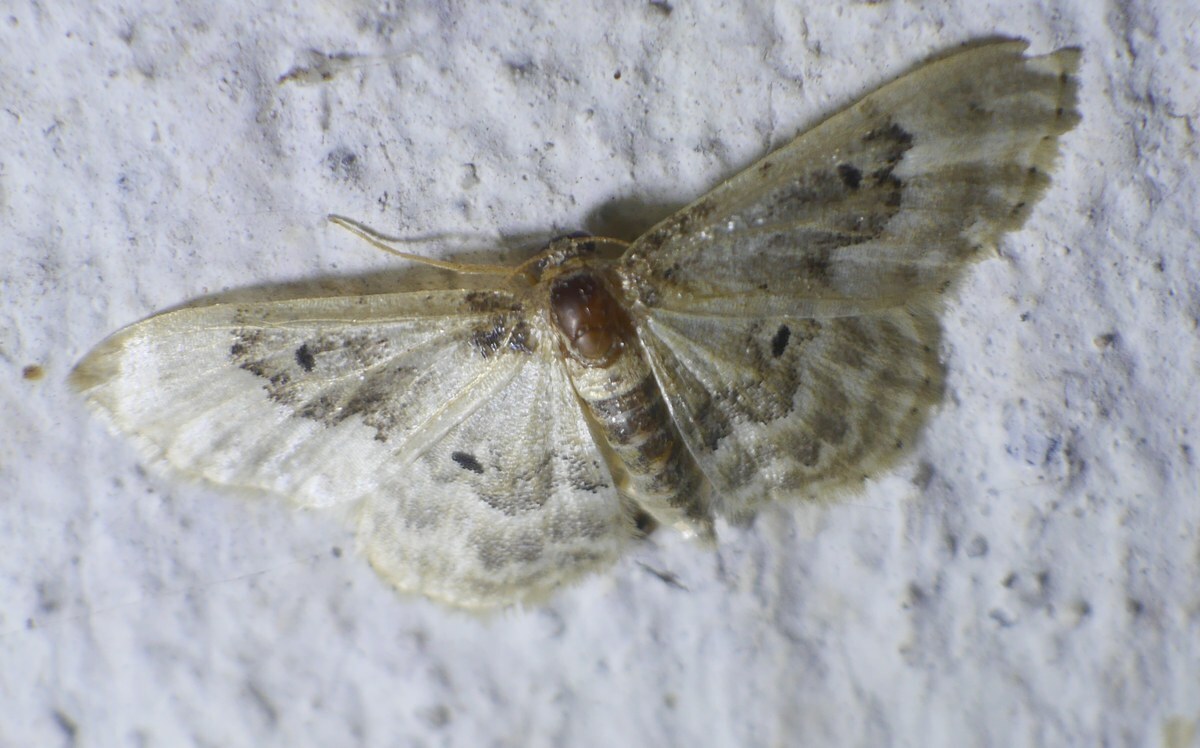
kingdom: Animalia
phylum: Arthropoda
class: Insecta
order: Lepidoptera
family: Geometridae
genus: Idaea
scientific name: Idaea rusticata
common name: Least carpet
